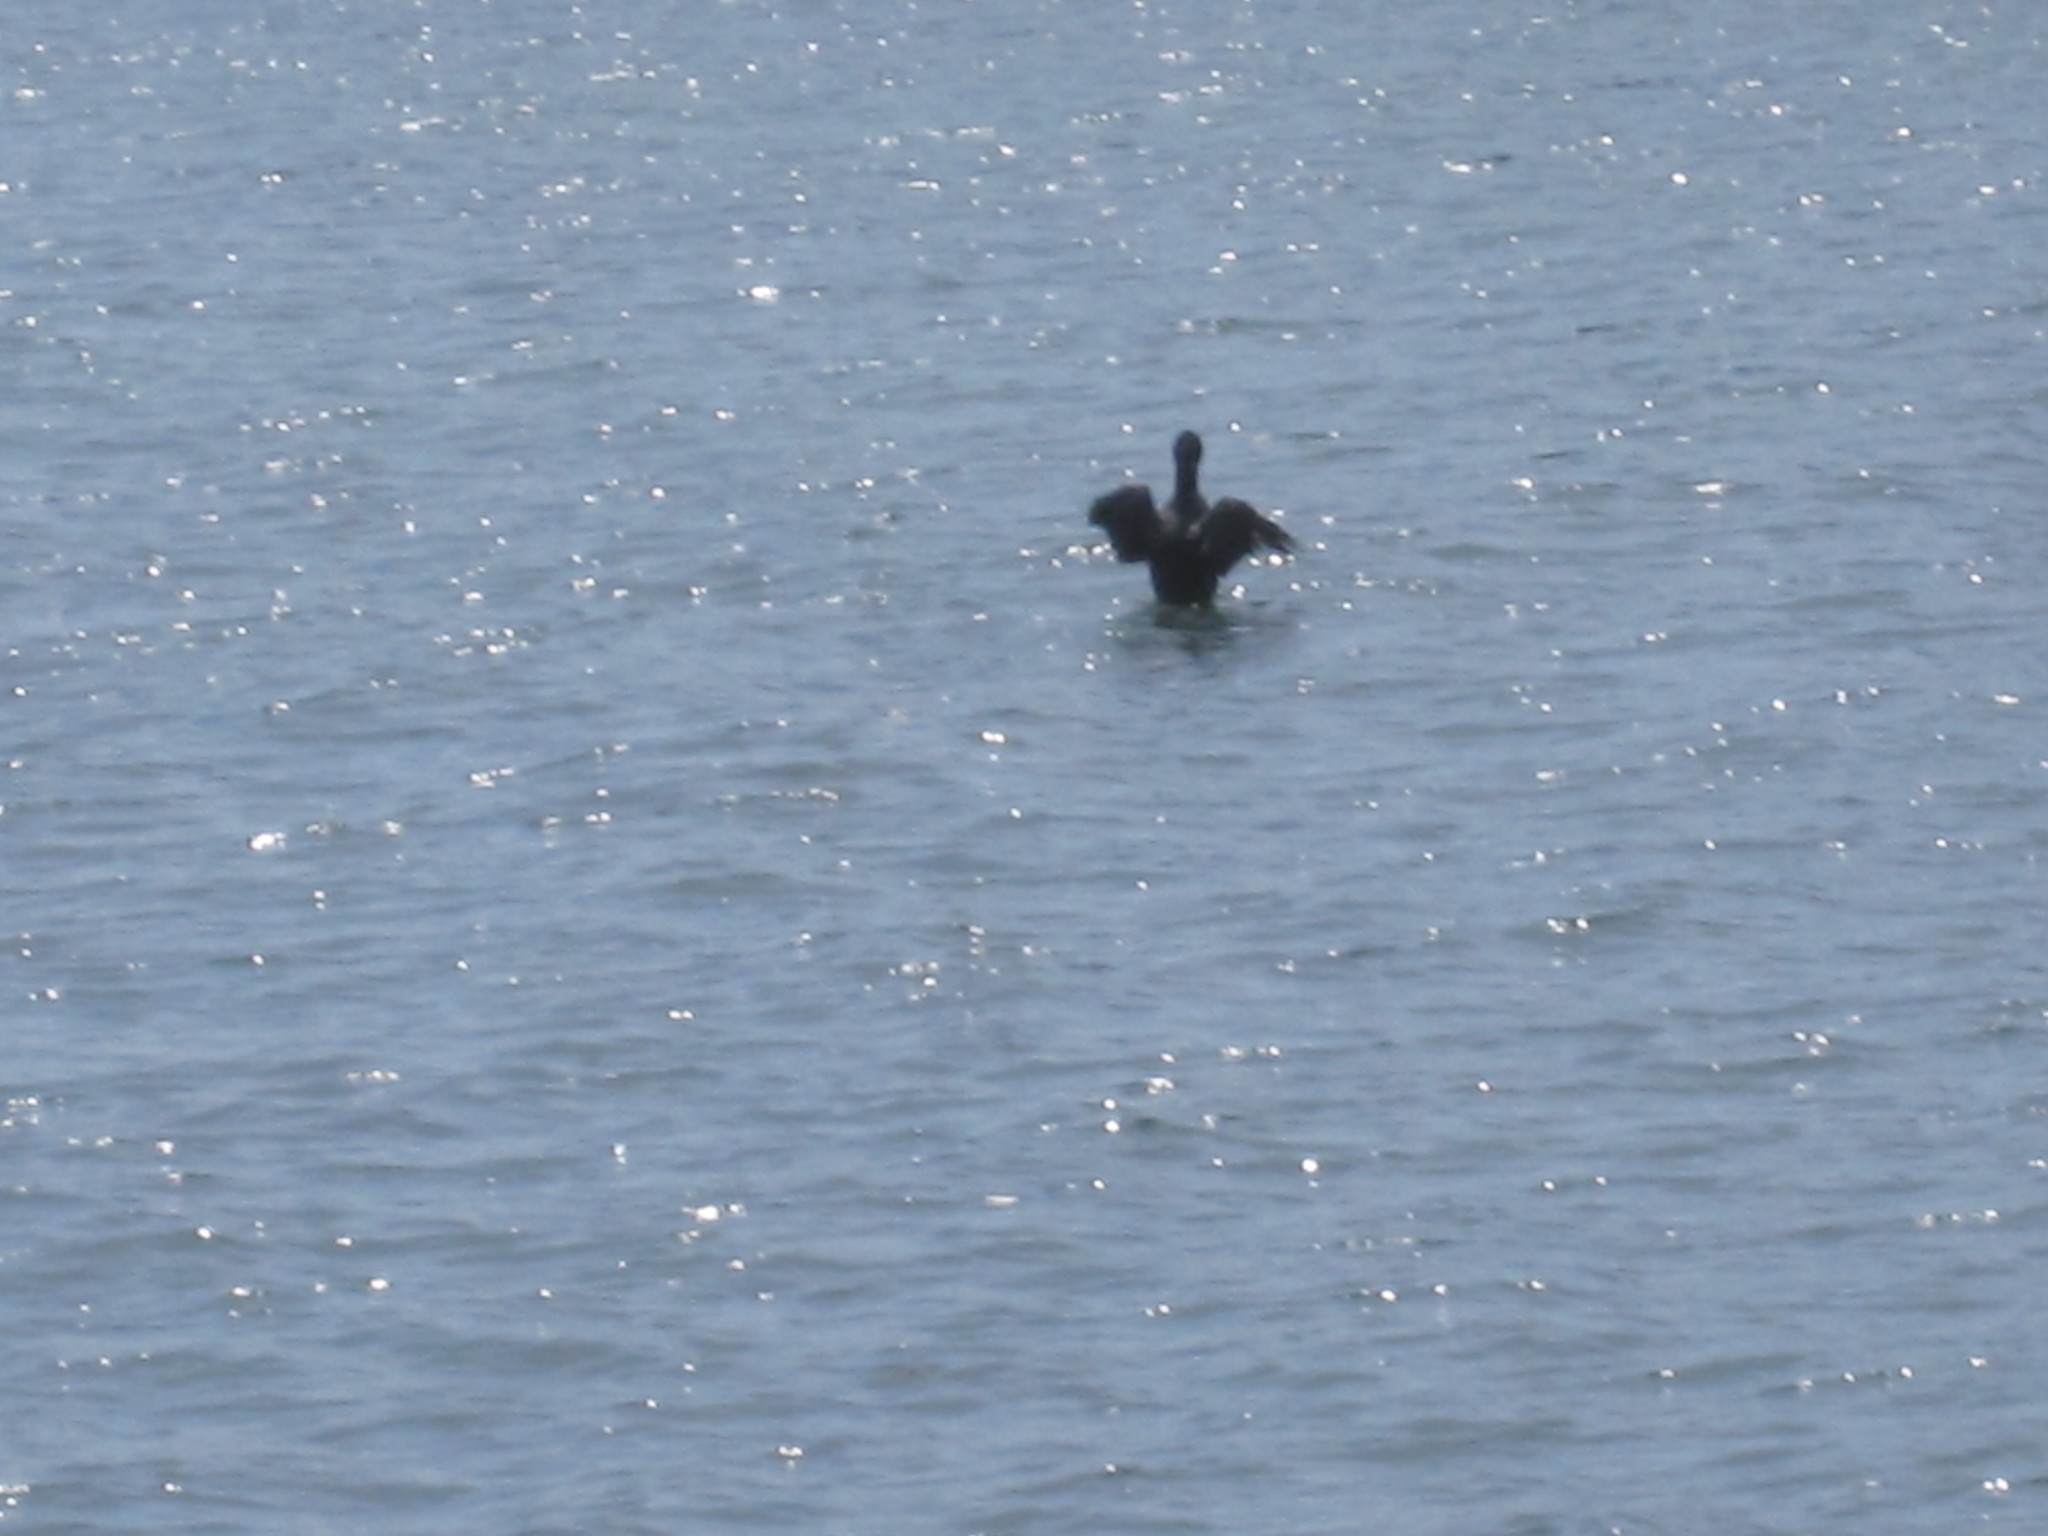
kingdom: Animalia
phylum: Chordata
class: Aves
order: Suliformes
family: Phalacrocoracidae
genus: Phalacrocorax
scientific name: Phalacrocorax auritus
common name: Double-crested cormorant
